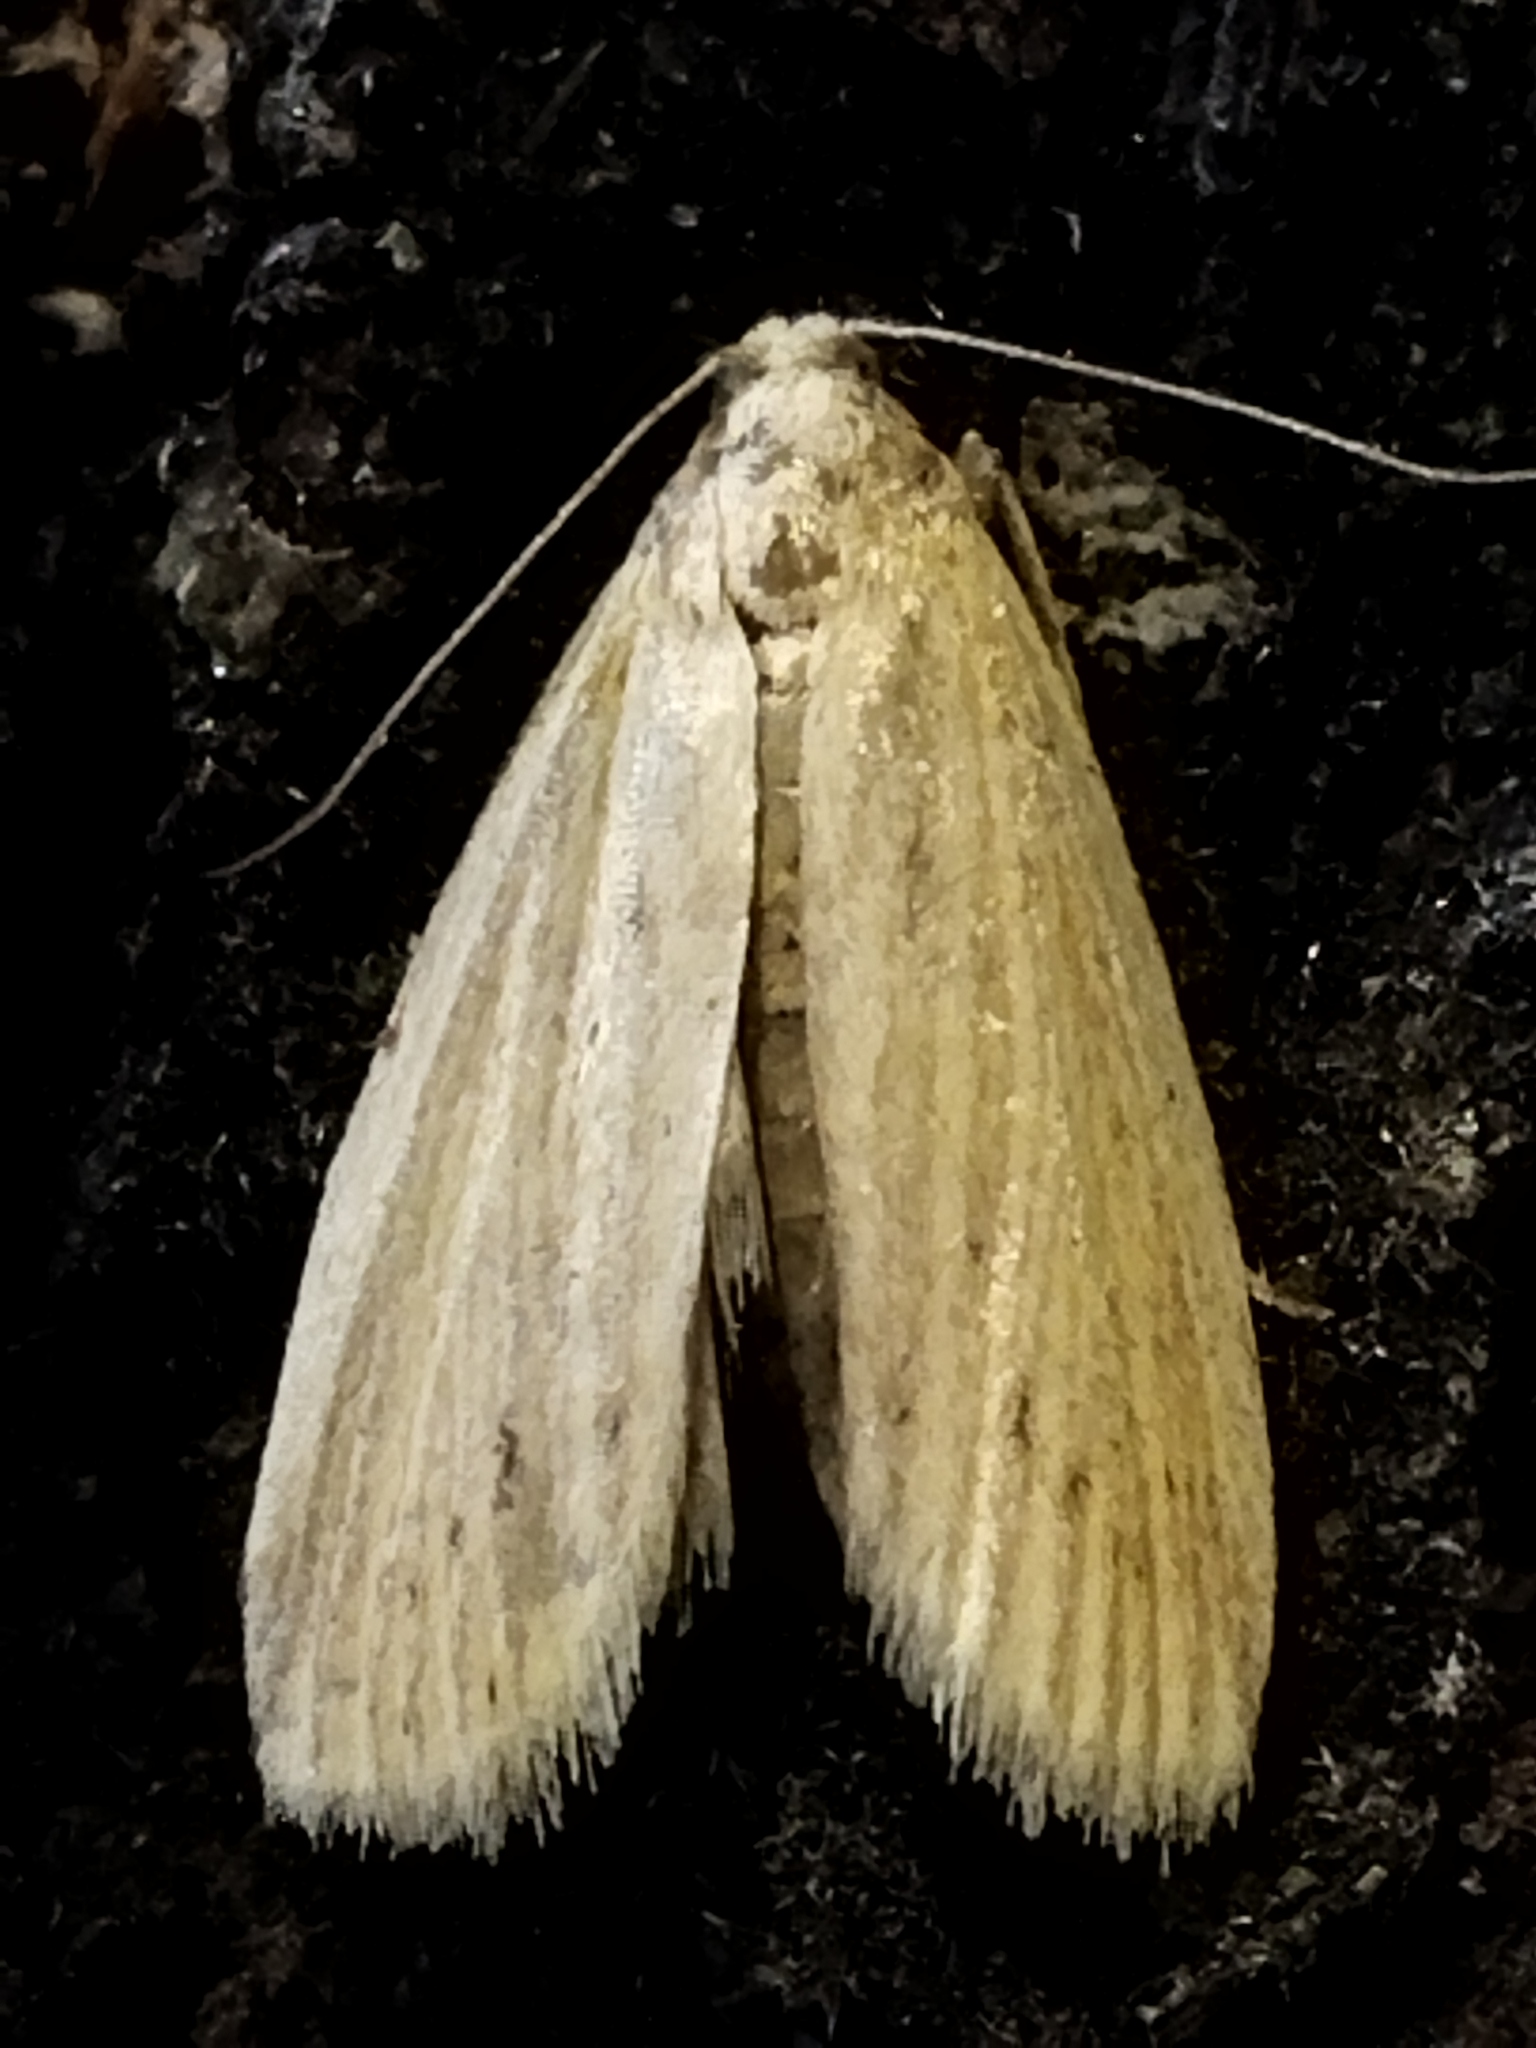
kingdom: Animalia
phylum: Arthropoda
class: Insecta
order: Lepidoptera
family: Pyralidae
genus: Ematheudes
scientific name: Ematheudes punctellus
